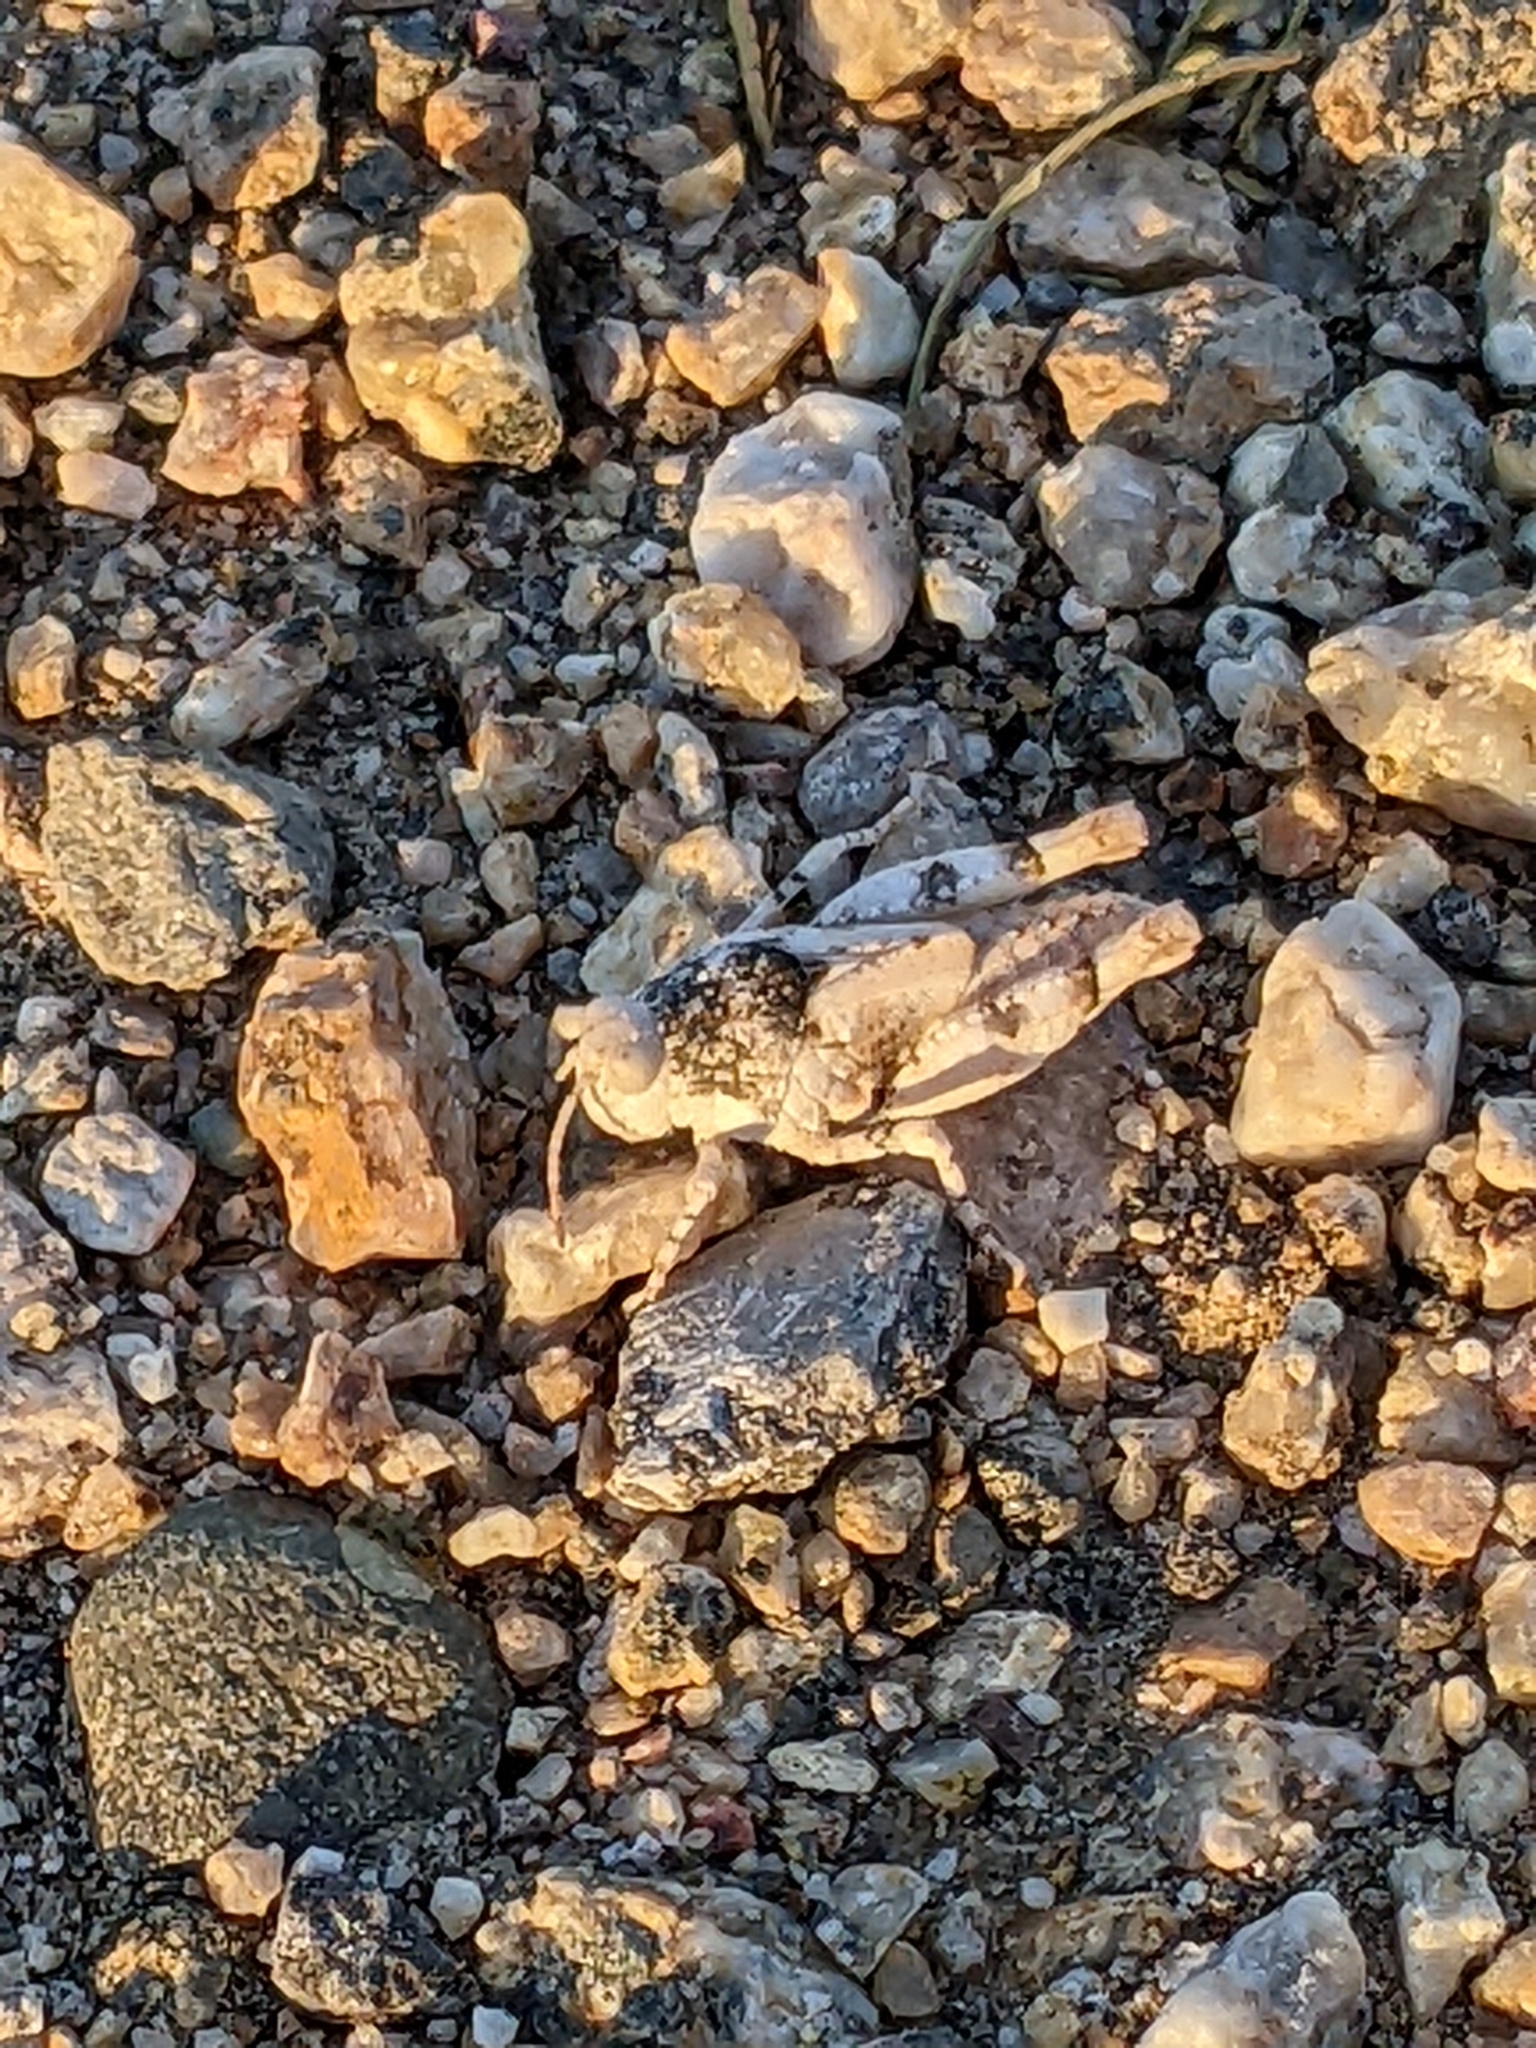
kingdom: Animalia
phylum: Arthropoda
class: Insecta
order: Orthoptera
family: Acrididae
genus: Cibolacris
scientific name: Cibolacris parviceps
